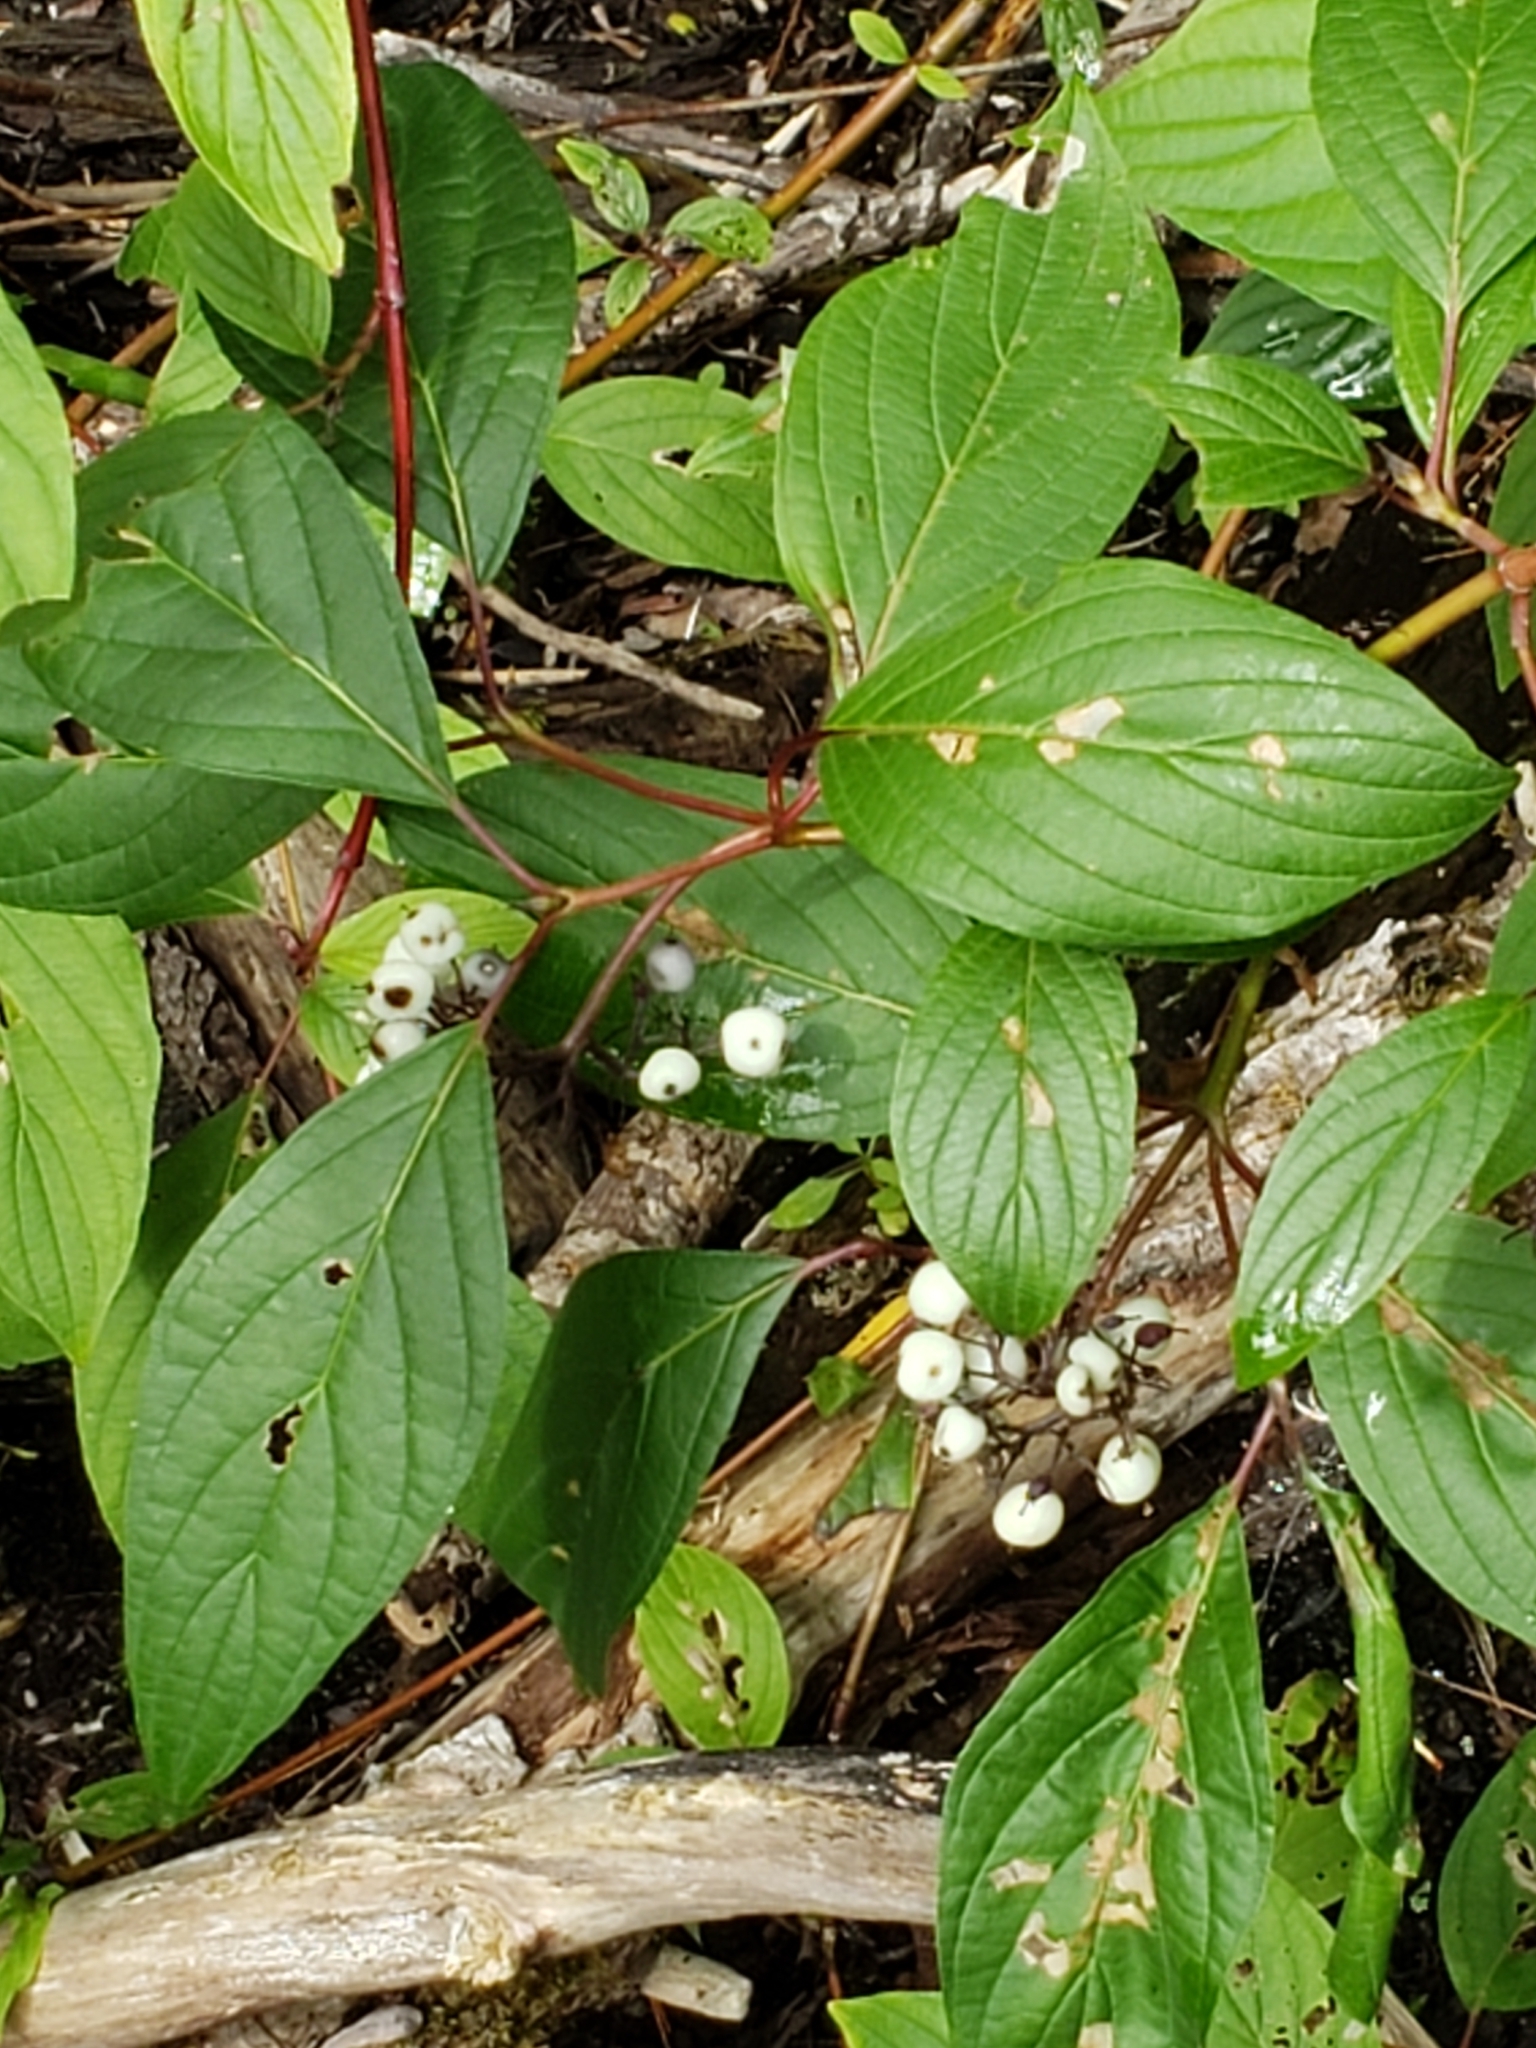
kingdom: Plantae
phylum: Tracheophyta
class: Magnoliopsida
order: Cornales
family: Cornaceae
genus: Cornus
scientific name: Cornus sericea
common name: Red-osier dogwood
